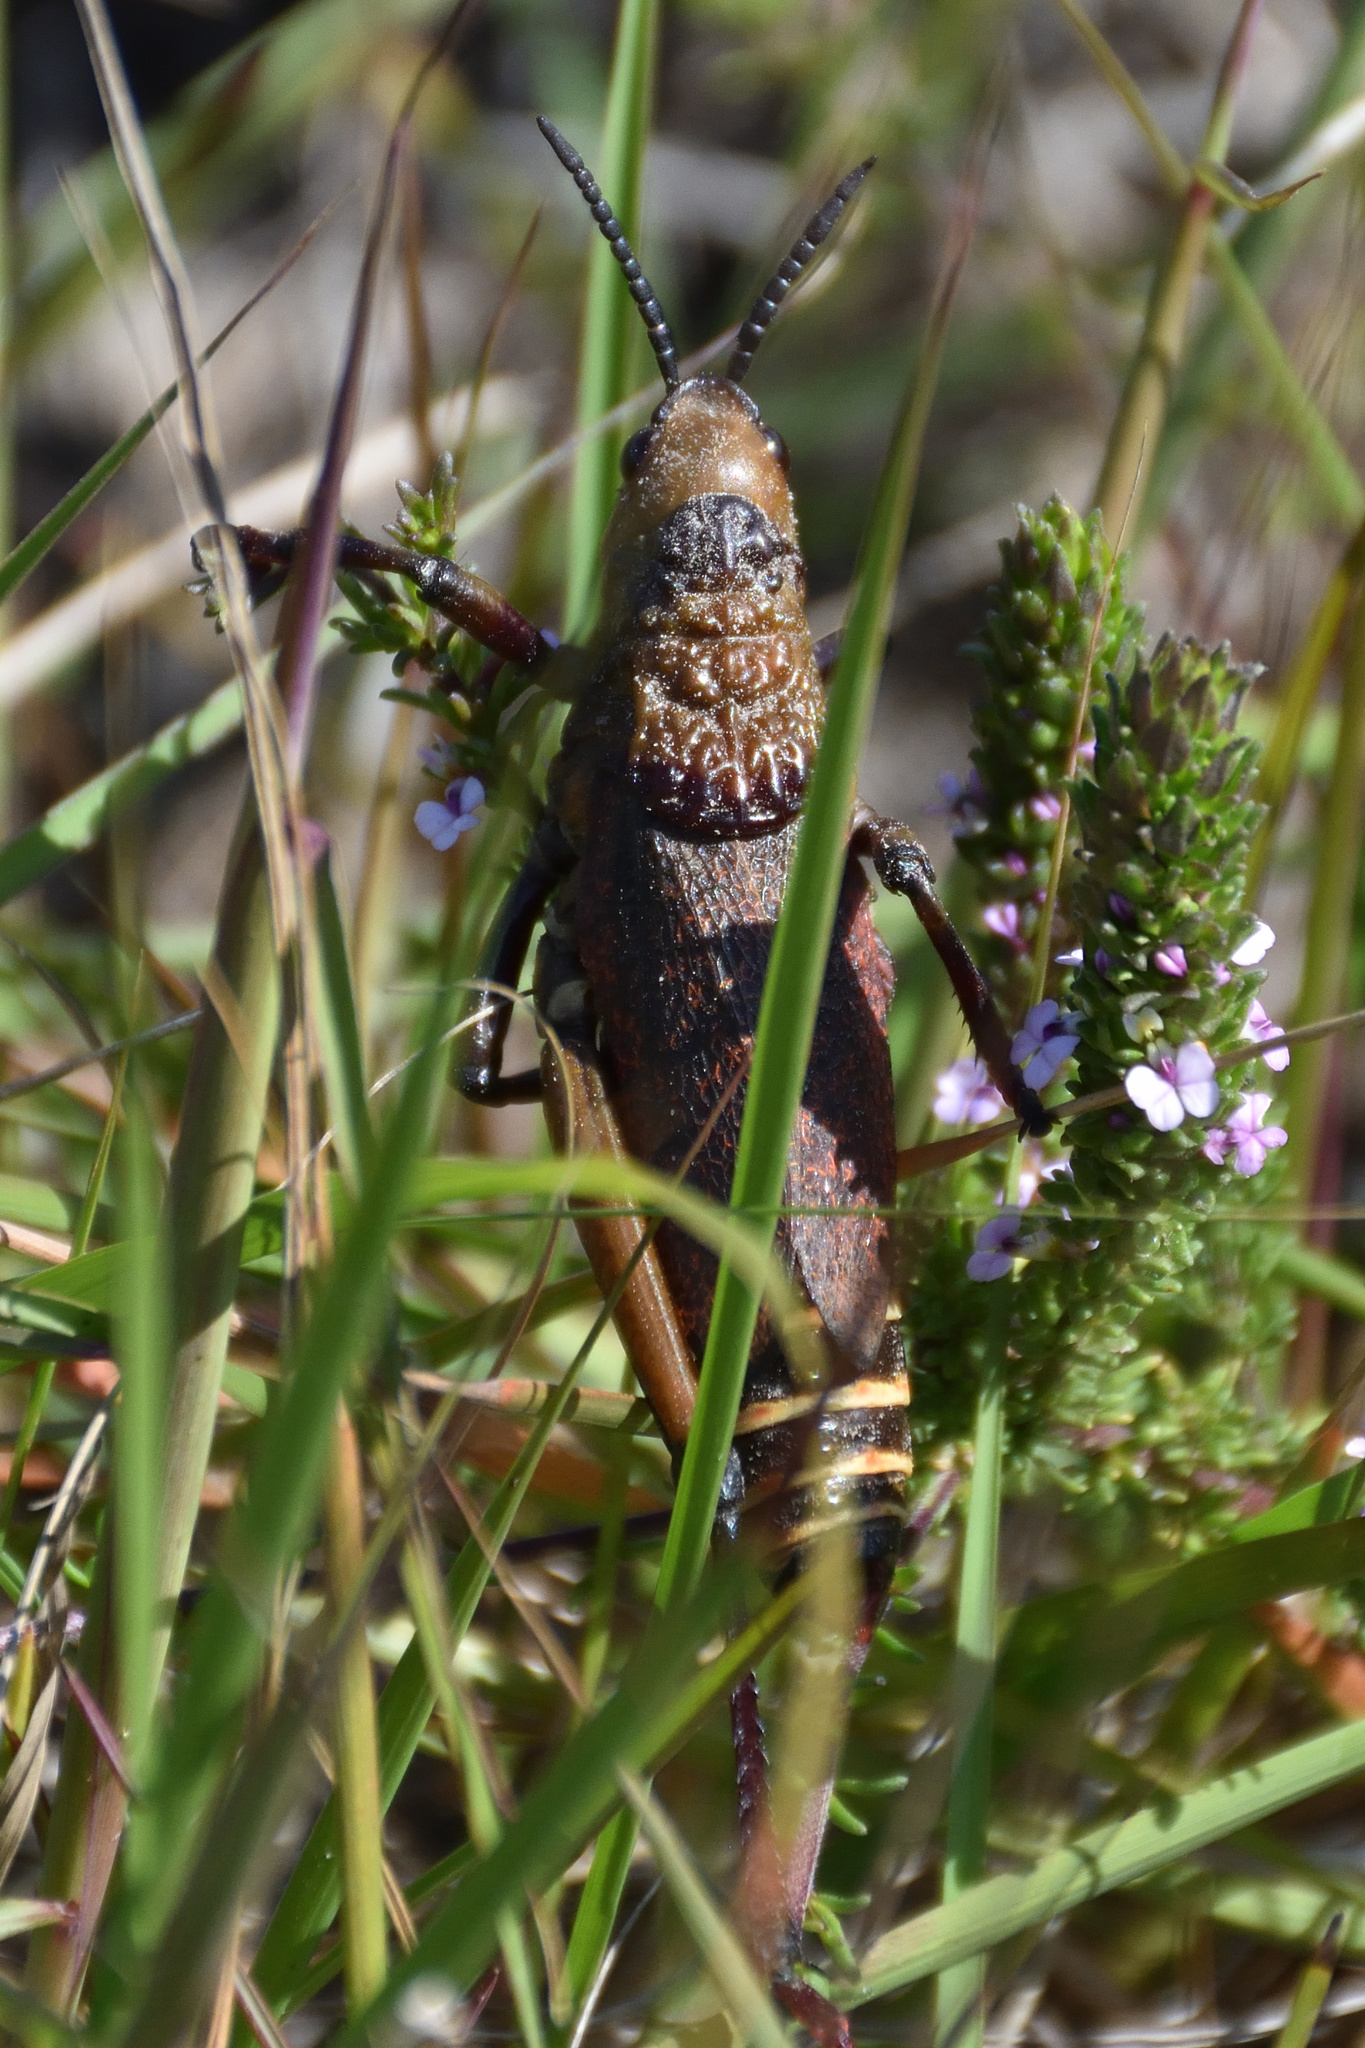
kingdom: Animalia
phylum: Arthropoda
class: Insecta
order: Orthoptera
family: Pyrgomorphidae
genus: Dictyophorus
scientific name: Dictyophorus spumans
